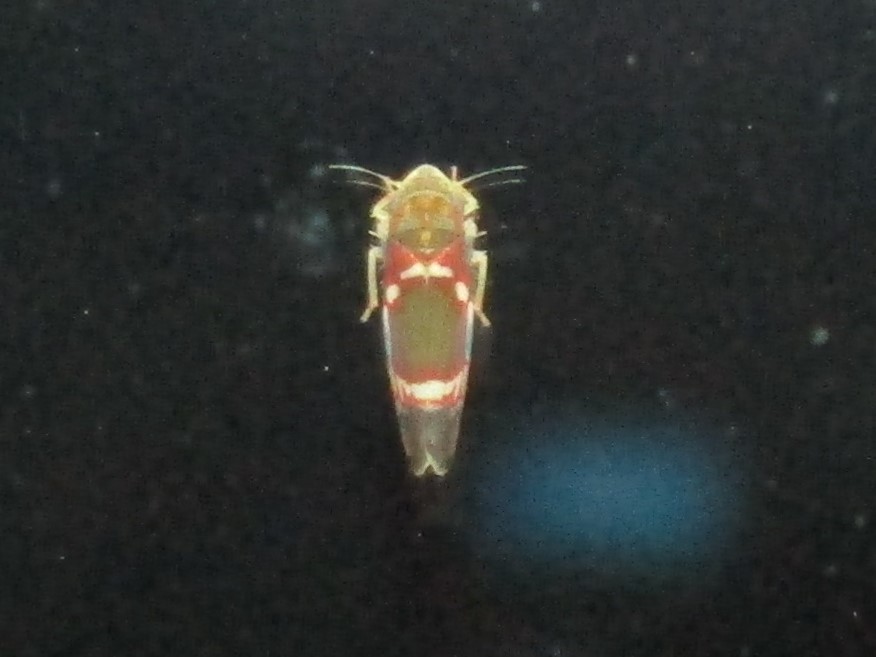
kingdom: Animalia
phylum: Arthropoda
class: Insecta
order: Hemiptera
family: Cicadellidae
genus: Erythroneura
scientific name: Erythroneura vitis
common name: Grapevine leafhopper
